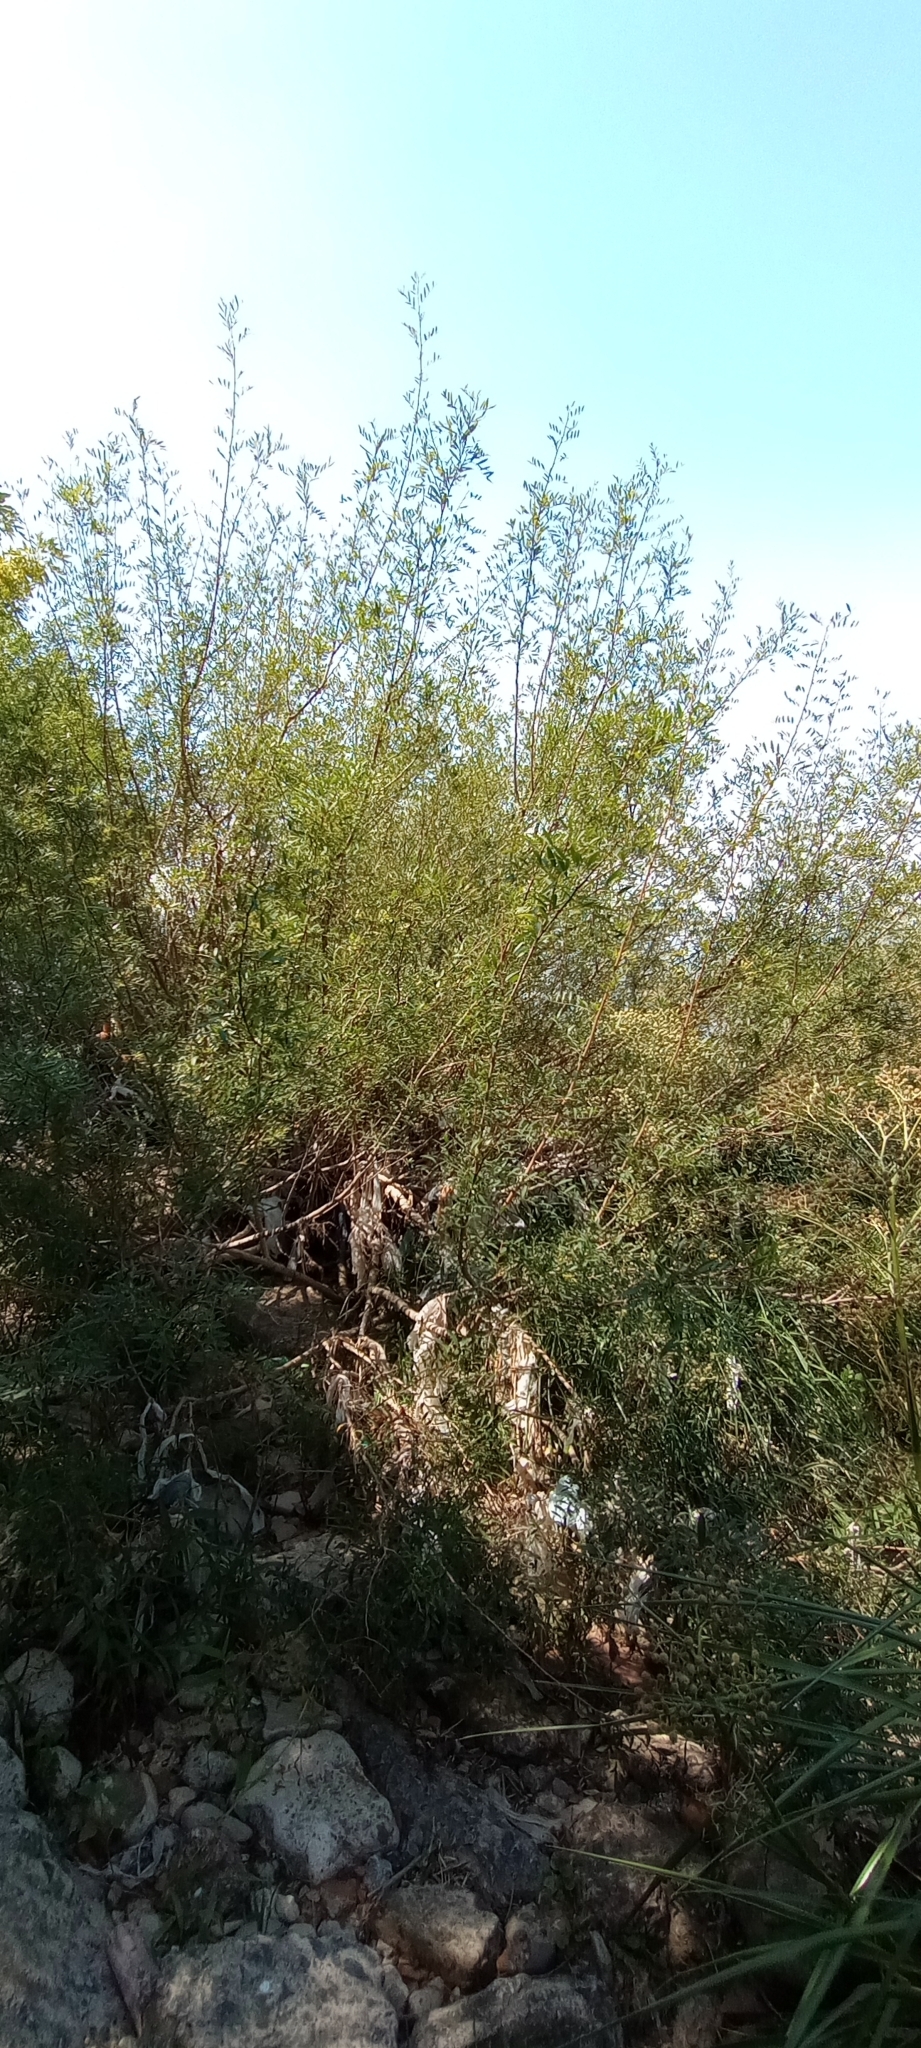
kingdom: Plantae
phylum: Tracheophyta
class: Magnoliopsida
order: Malpighiales
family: Phyllanthaceae
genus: Phyllanthus
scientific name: Phyllanthus sellowianus
